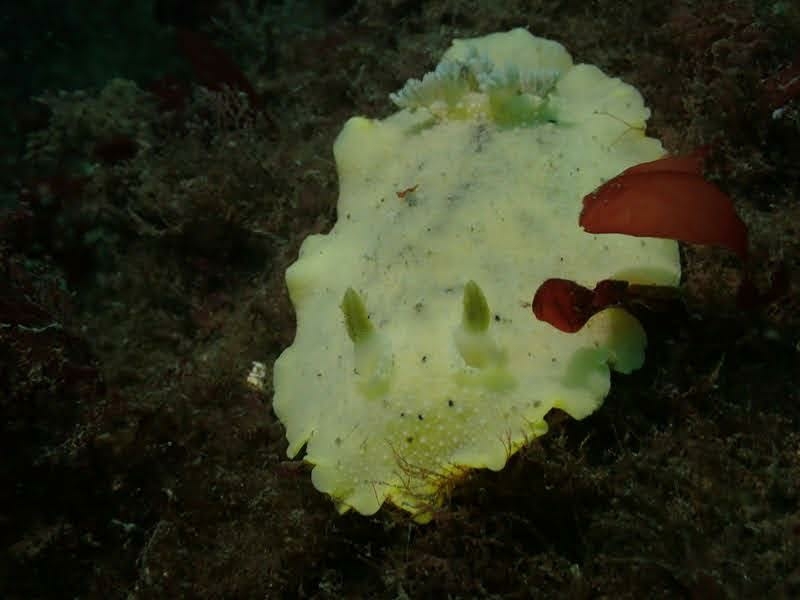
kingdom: Animalia
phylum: Mollusca
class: Gastropoda
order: Nudibranchia
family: Discodorididae
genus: Geitodoris
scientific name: Geitodoris heathi
